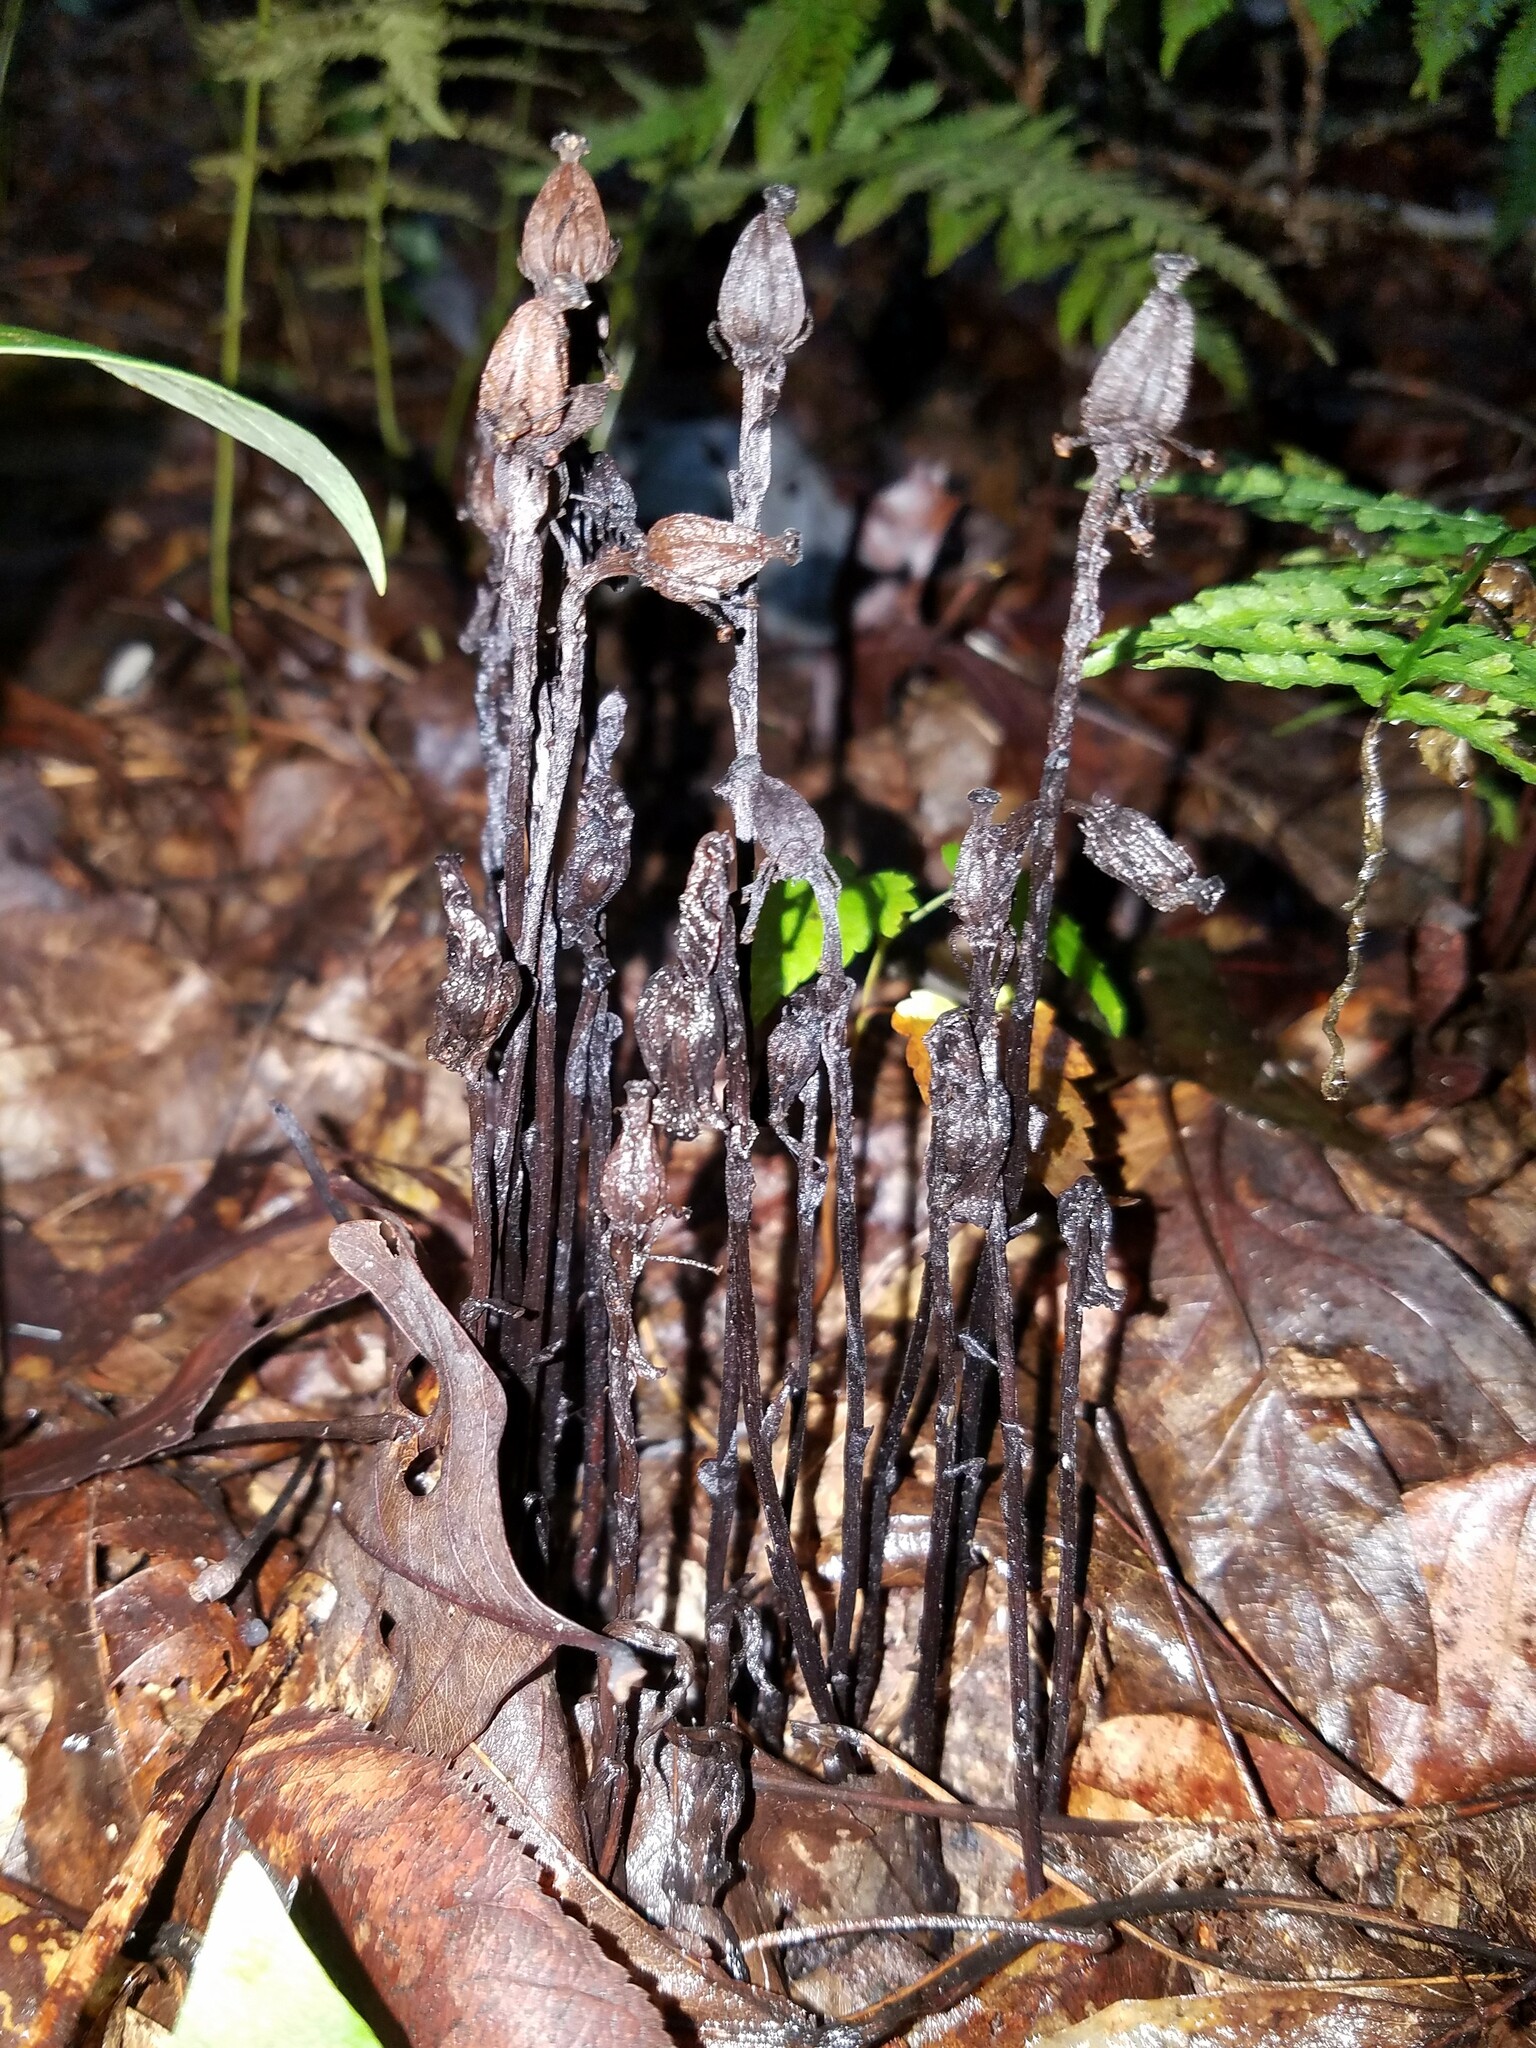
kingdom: Plantae
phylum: Tracheophyta
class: Magnoliopsida
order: Ericales
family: Ericaceae
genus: Monotropa
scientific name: Monotropa uniflora
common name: Convulsion root
